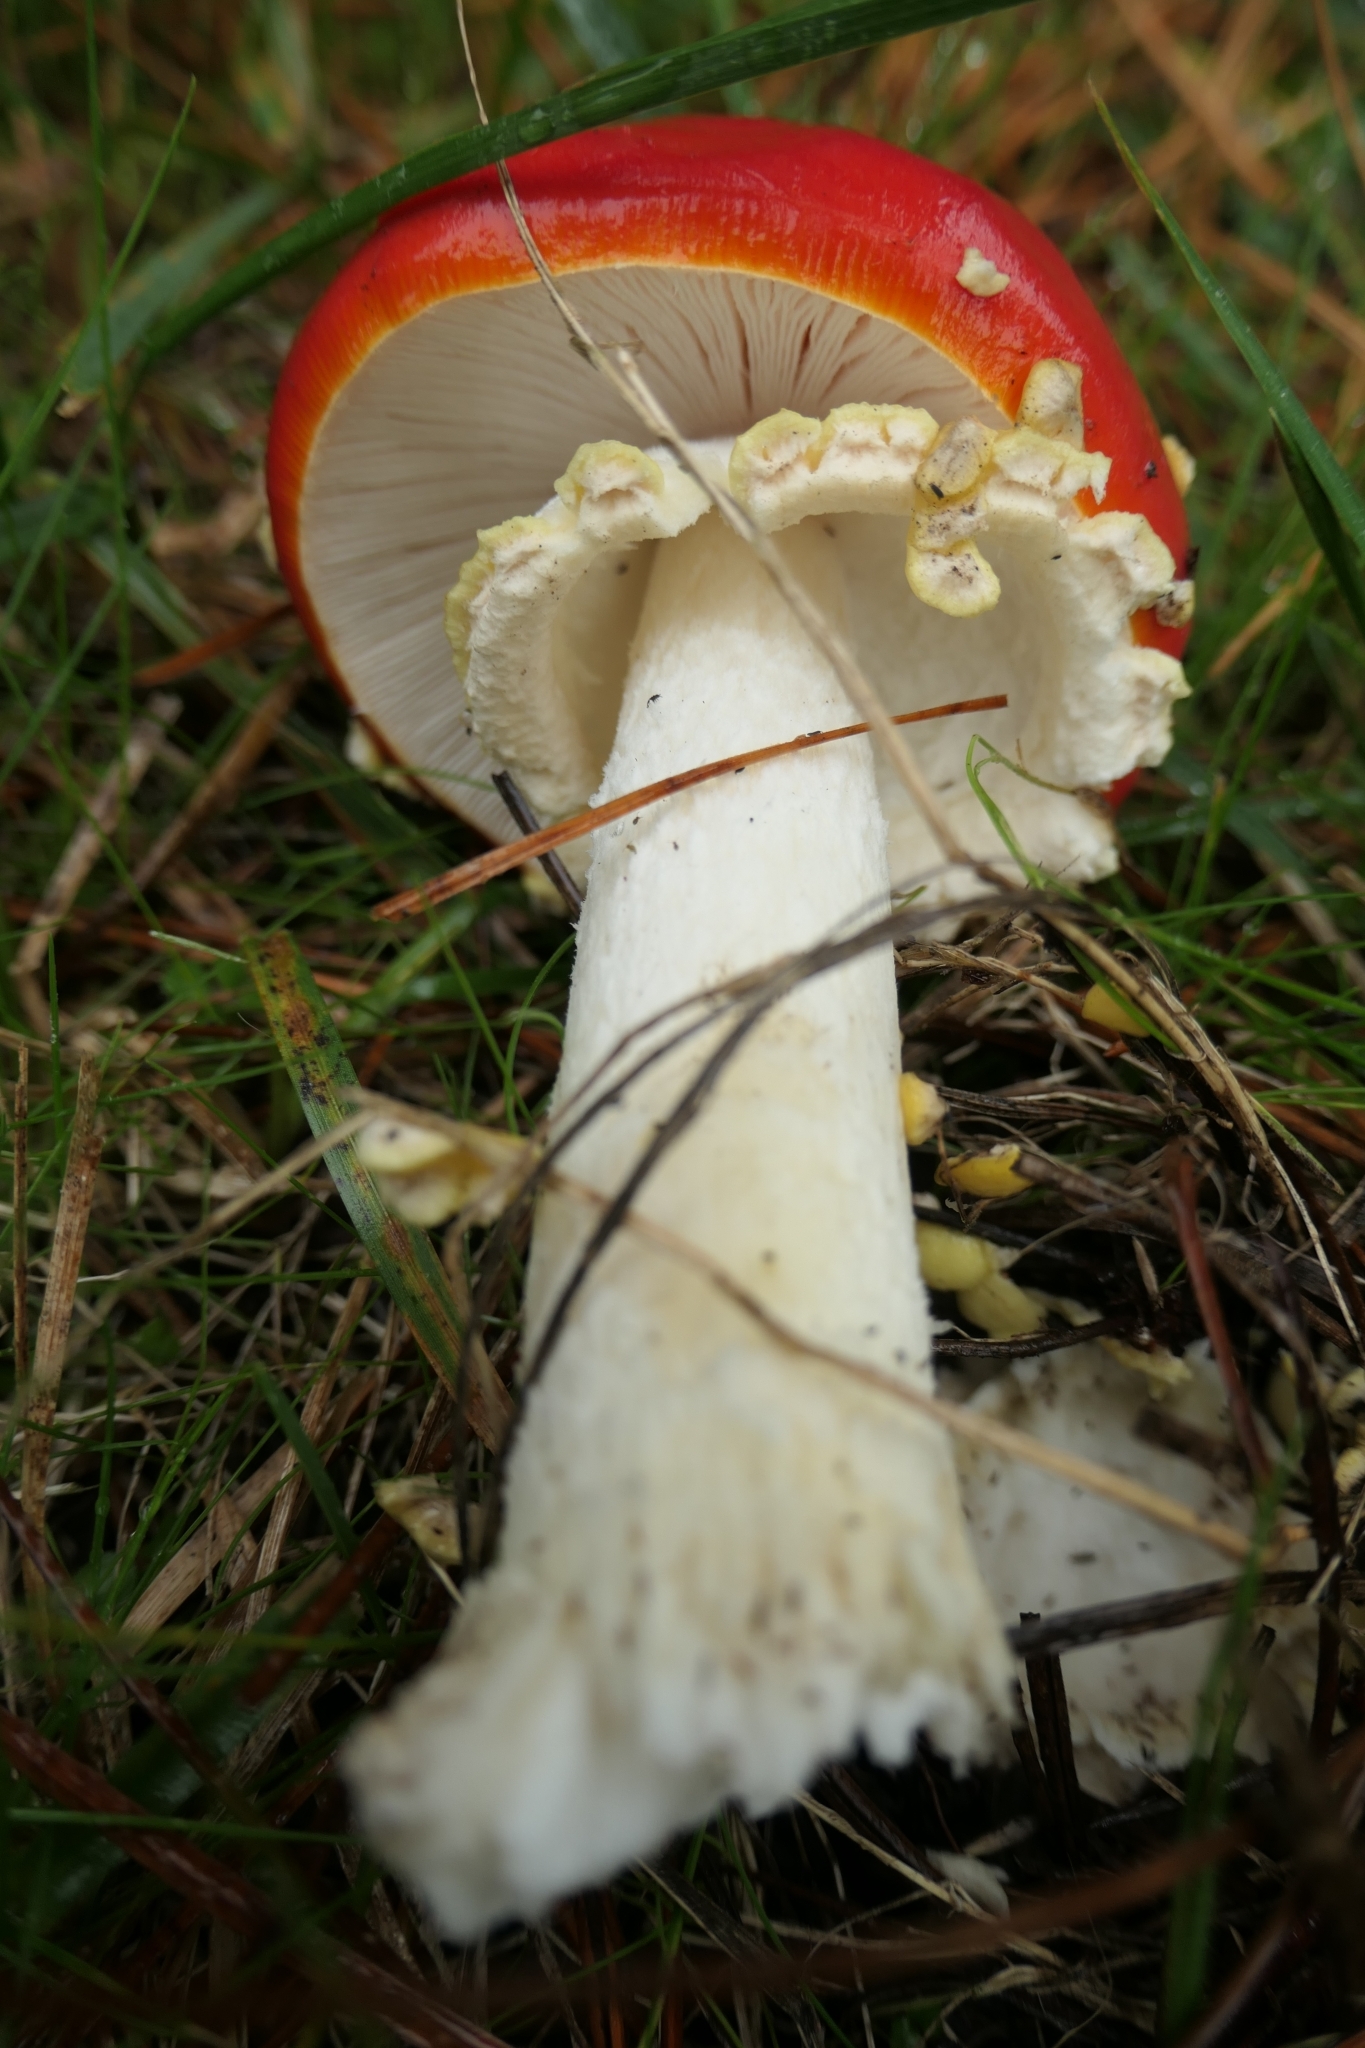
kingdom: Fungi
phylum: Basidiomycota
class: Agaricomycetes
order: Agaricales
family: Amanitaceae
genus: Amanita
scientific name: Amanita muscaria
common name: Fly agaric
